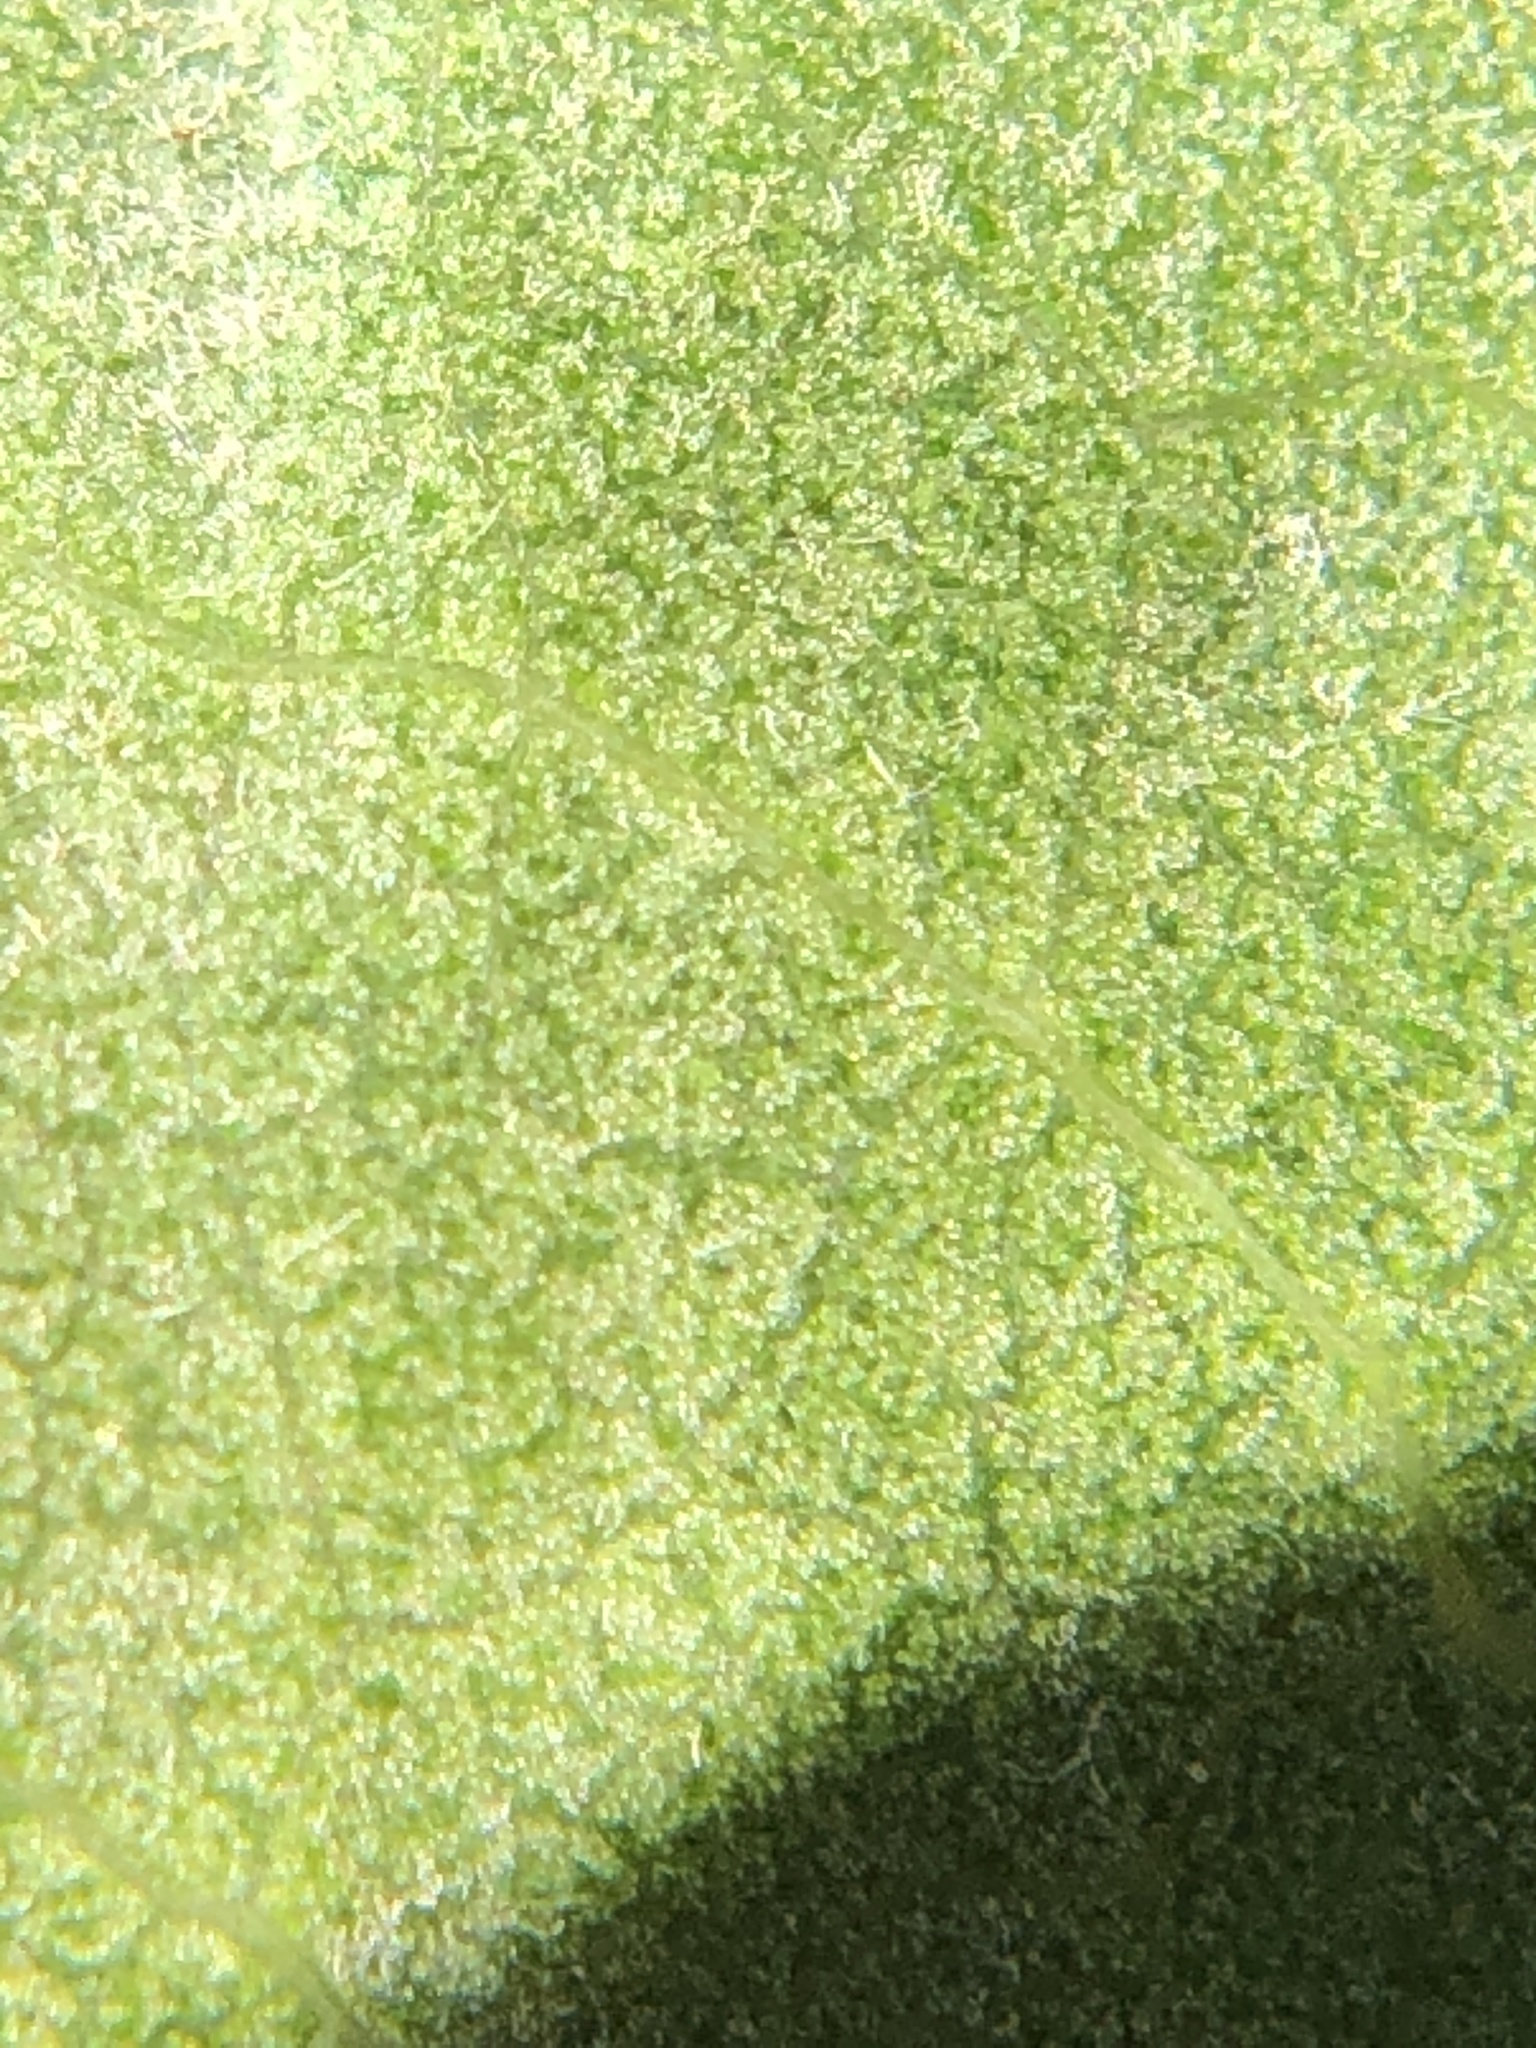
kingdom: Plantae
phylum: Tracheophyta
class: Magnoliopsida
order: Ericales
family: Ericaceae
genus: Arctostaphylos
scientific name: Arctostaphylos crustacea
